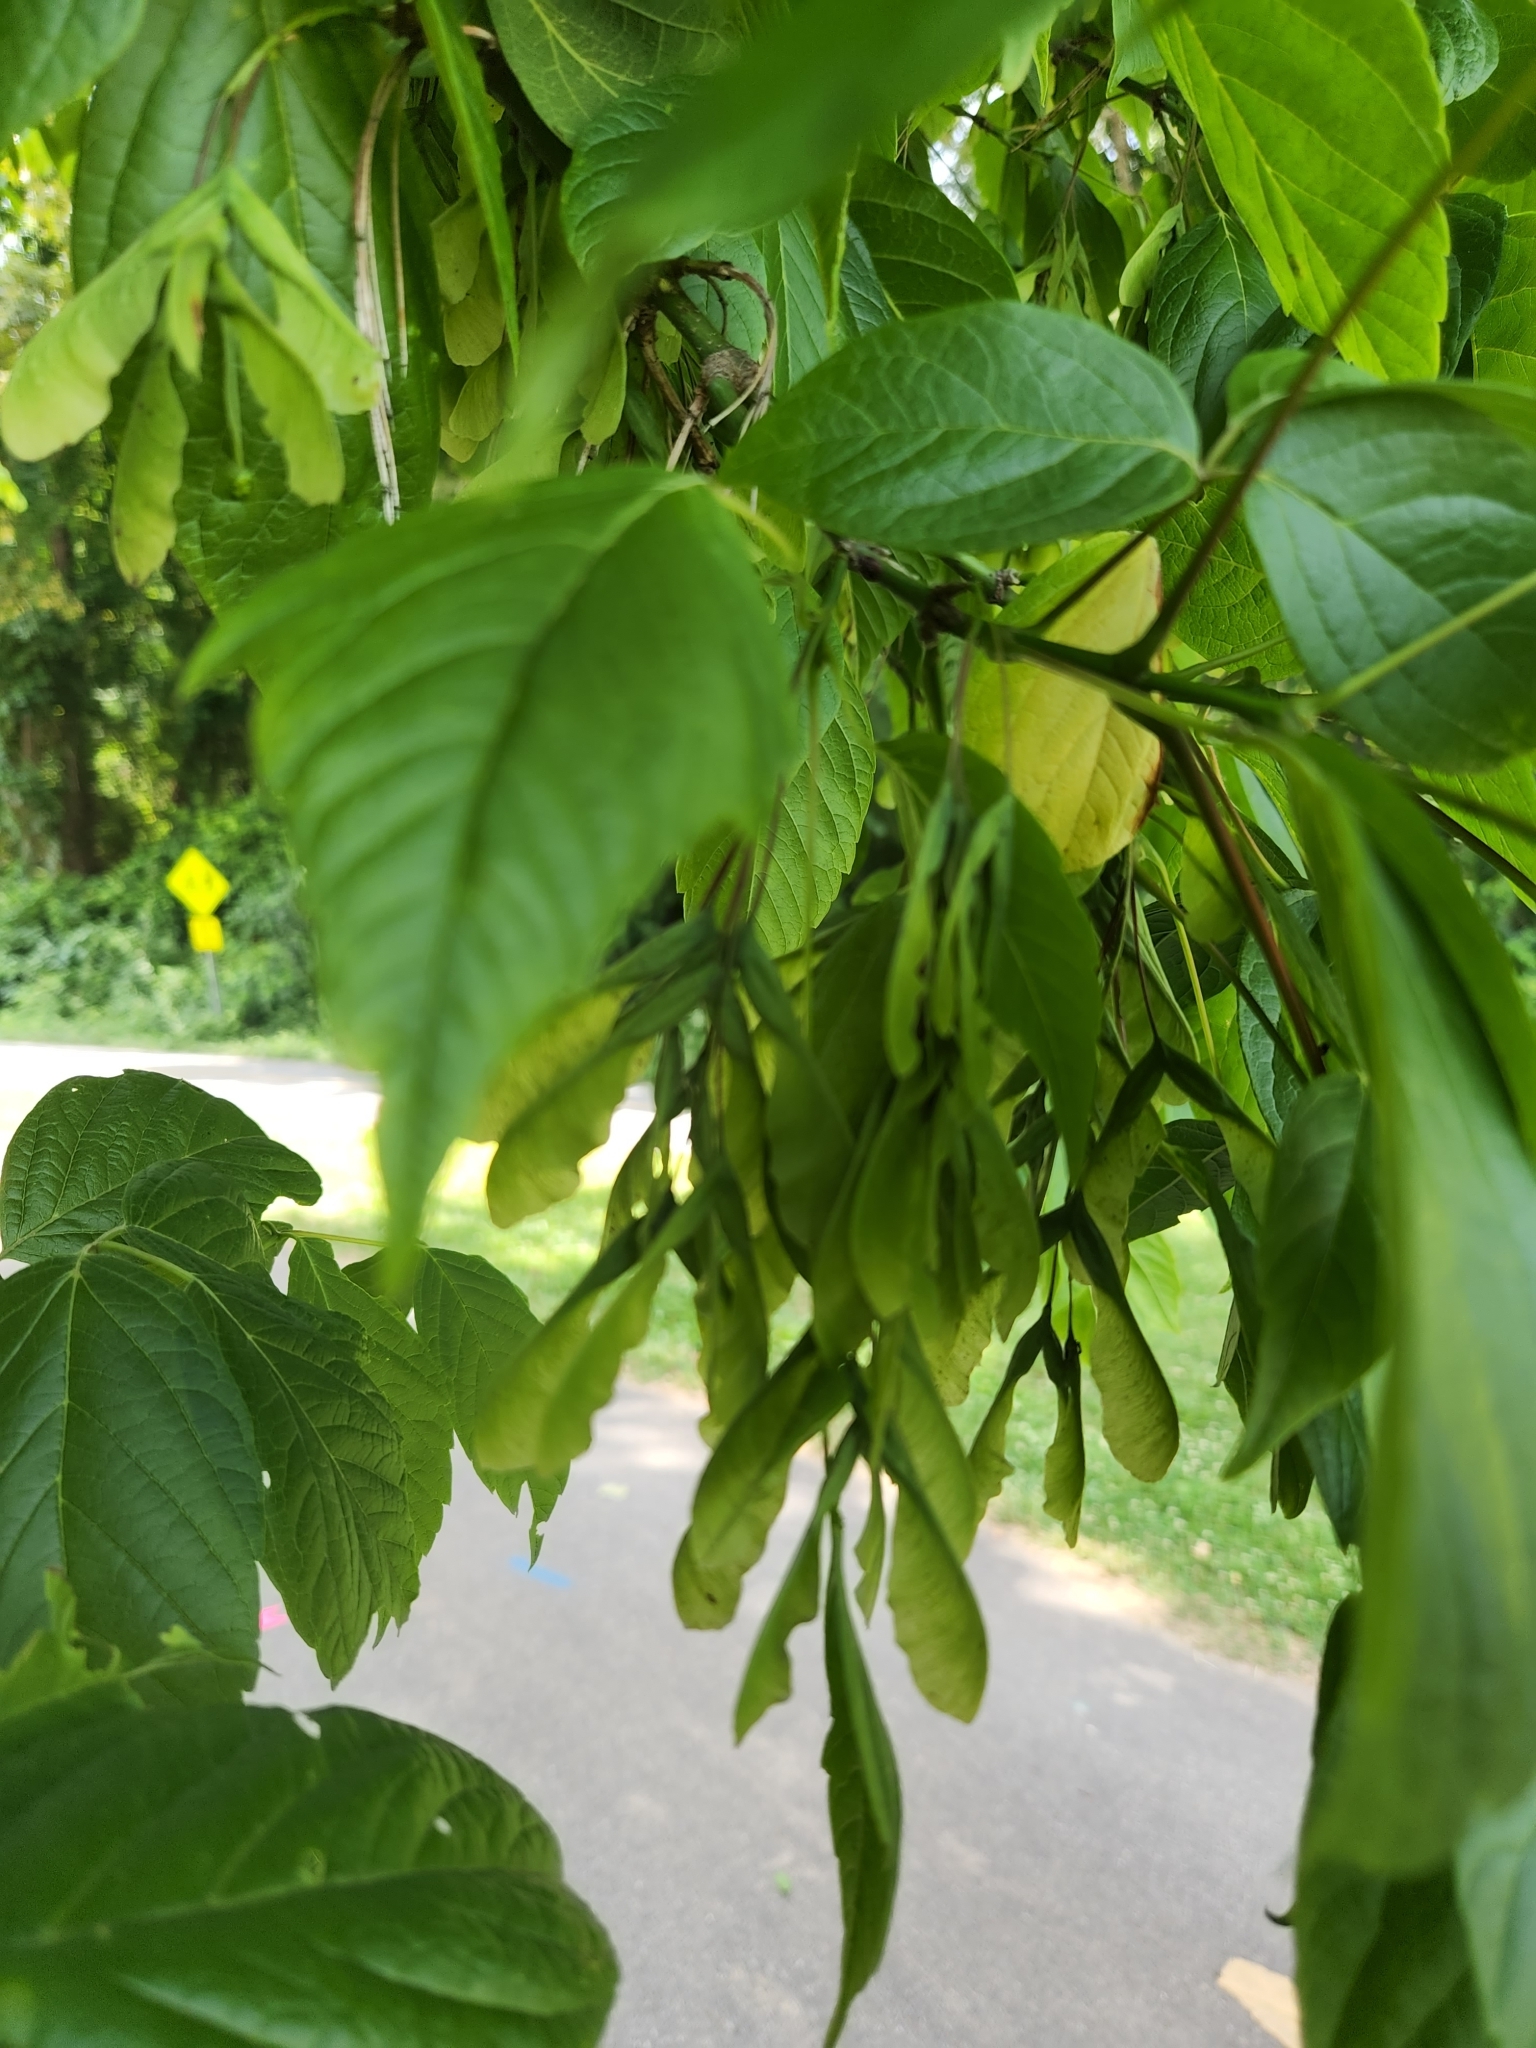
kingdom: Plantae
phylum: Tracheophyta
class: Magnoliopsida
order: Sapindales
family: Sapindaceae
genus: Acer
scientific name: Acer negundo
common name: Ashleaf maple
